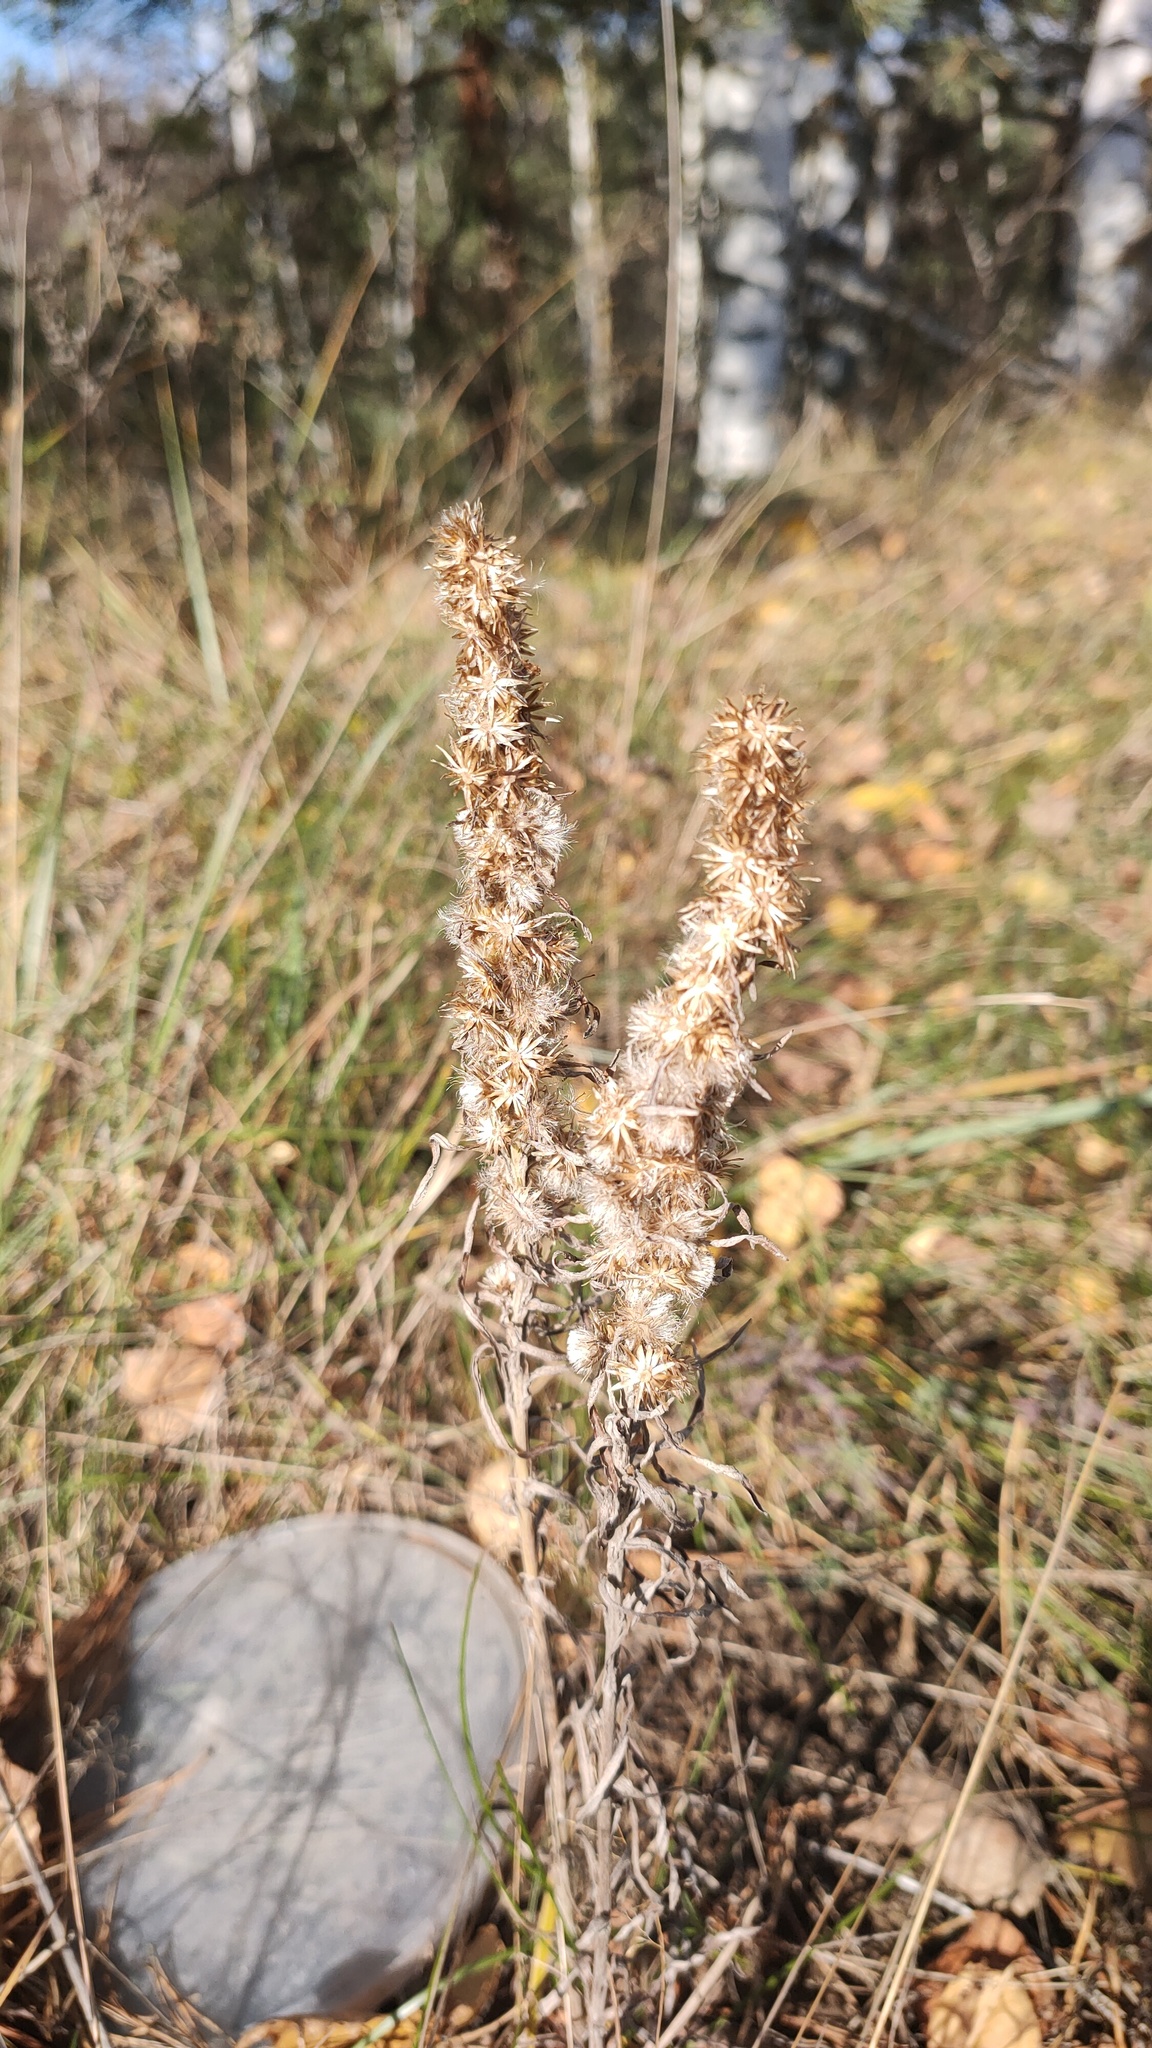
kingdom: Plantae
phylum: Tracheophyta
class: Magnoliopsida
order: Asterales
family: Asteraceae
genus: Omalotheca
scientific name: Omalotheca sylvatica
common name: Heath cudweed
